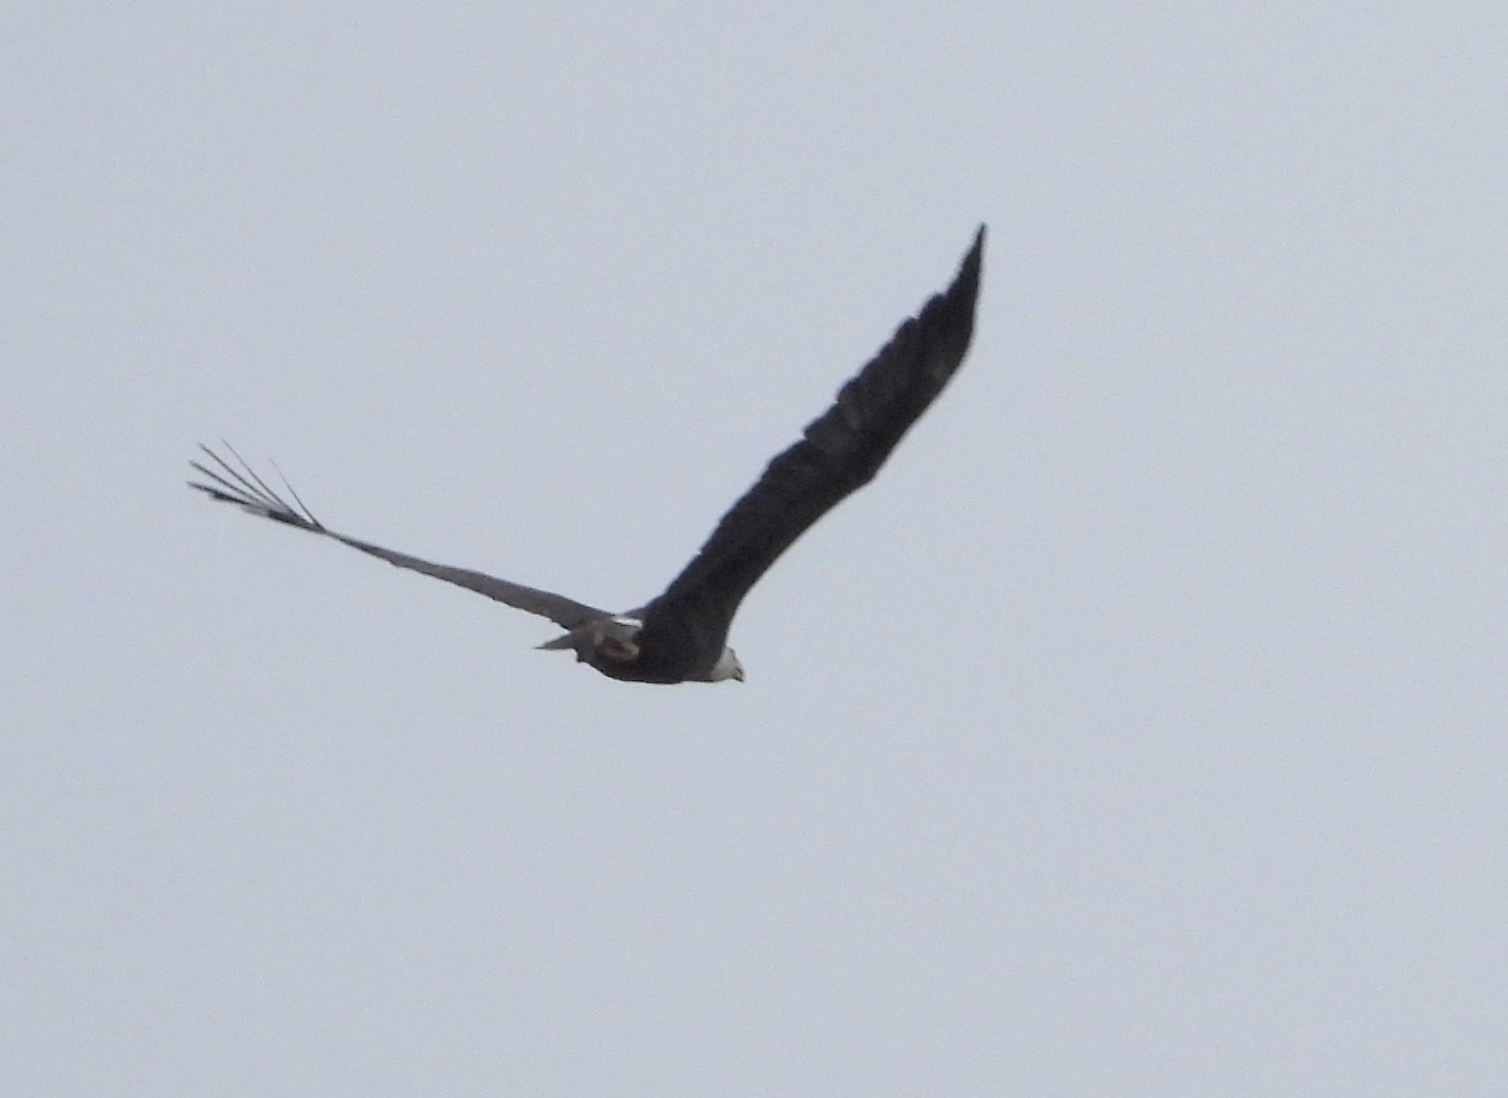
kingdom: Animalia
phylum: Chordata
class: Aves
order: Accipitriformes
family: Accipitridae
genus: Haliaeetus
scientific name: Haliaeetus leucocephalus
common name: Bald eagle
